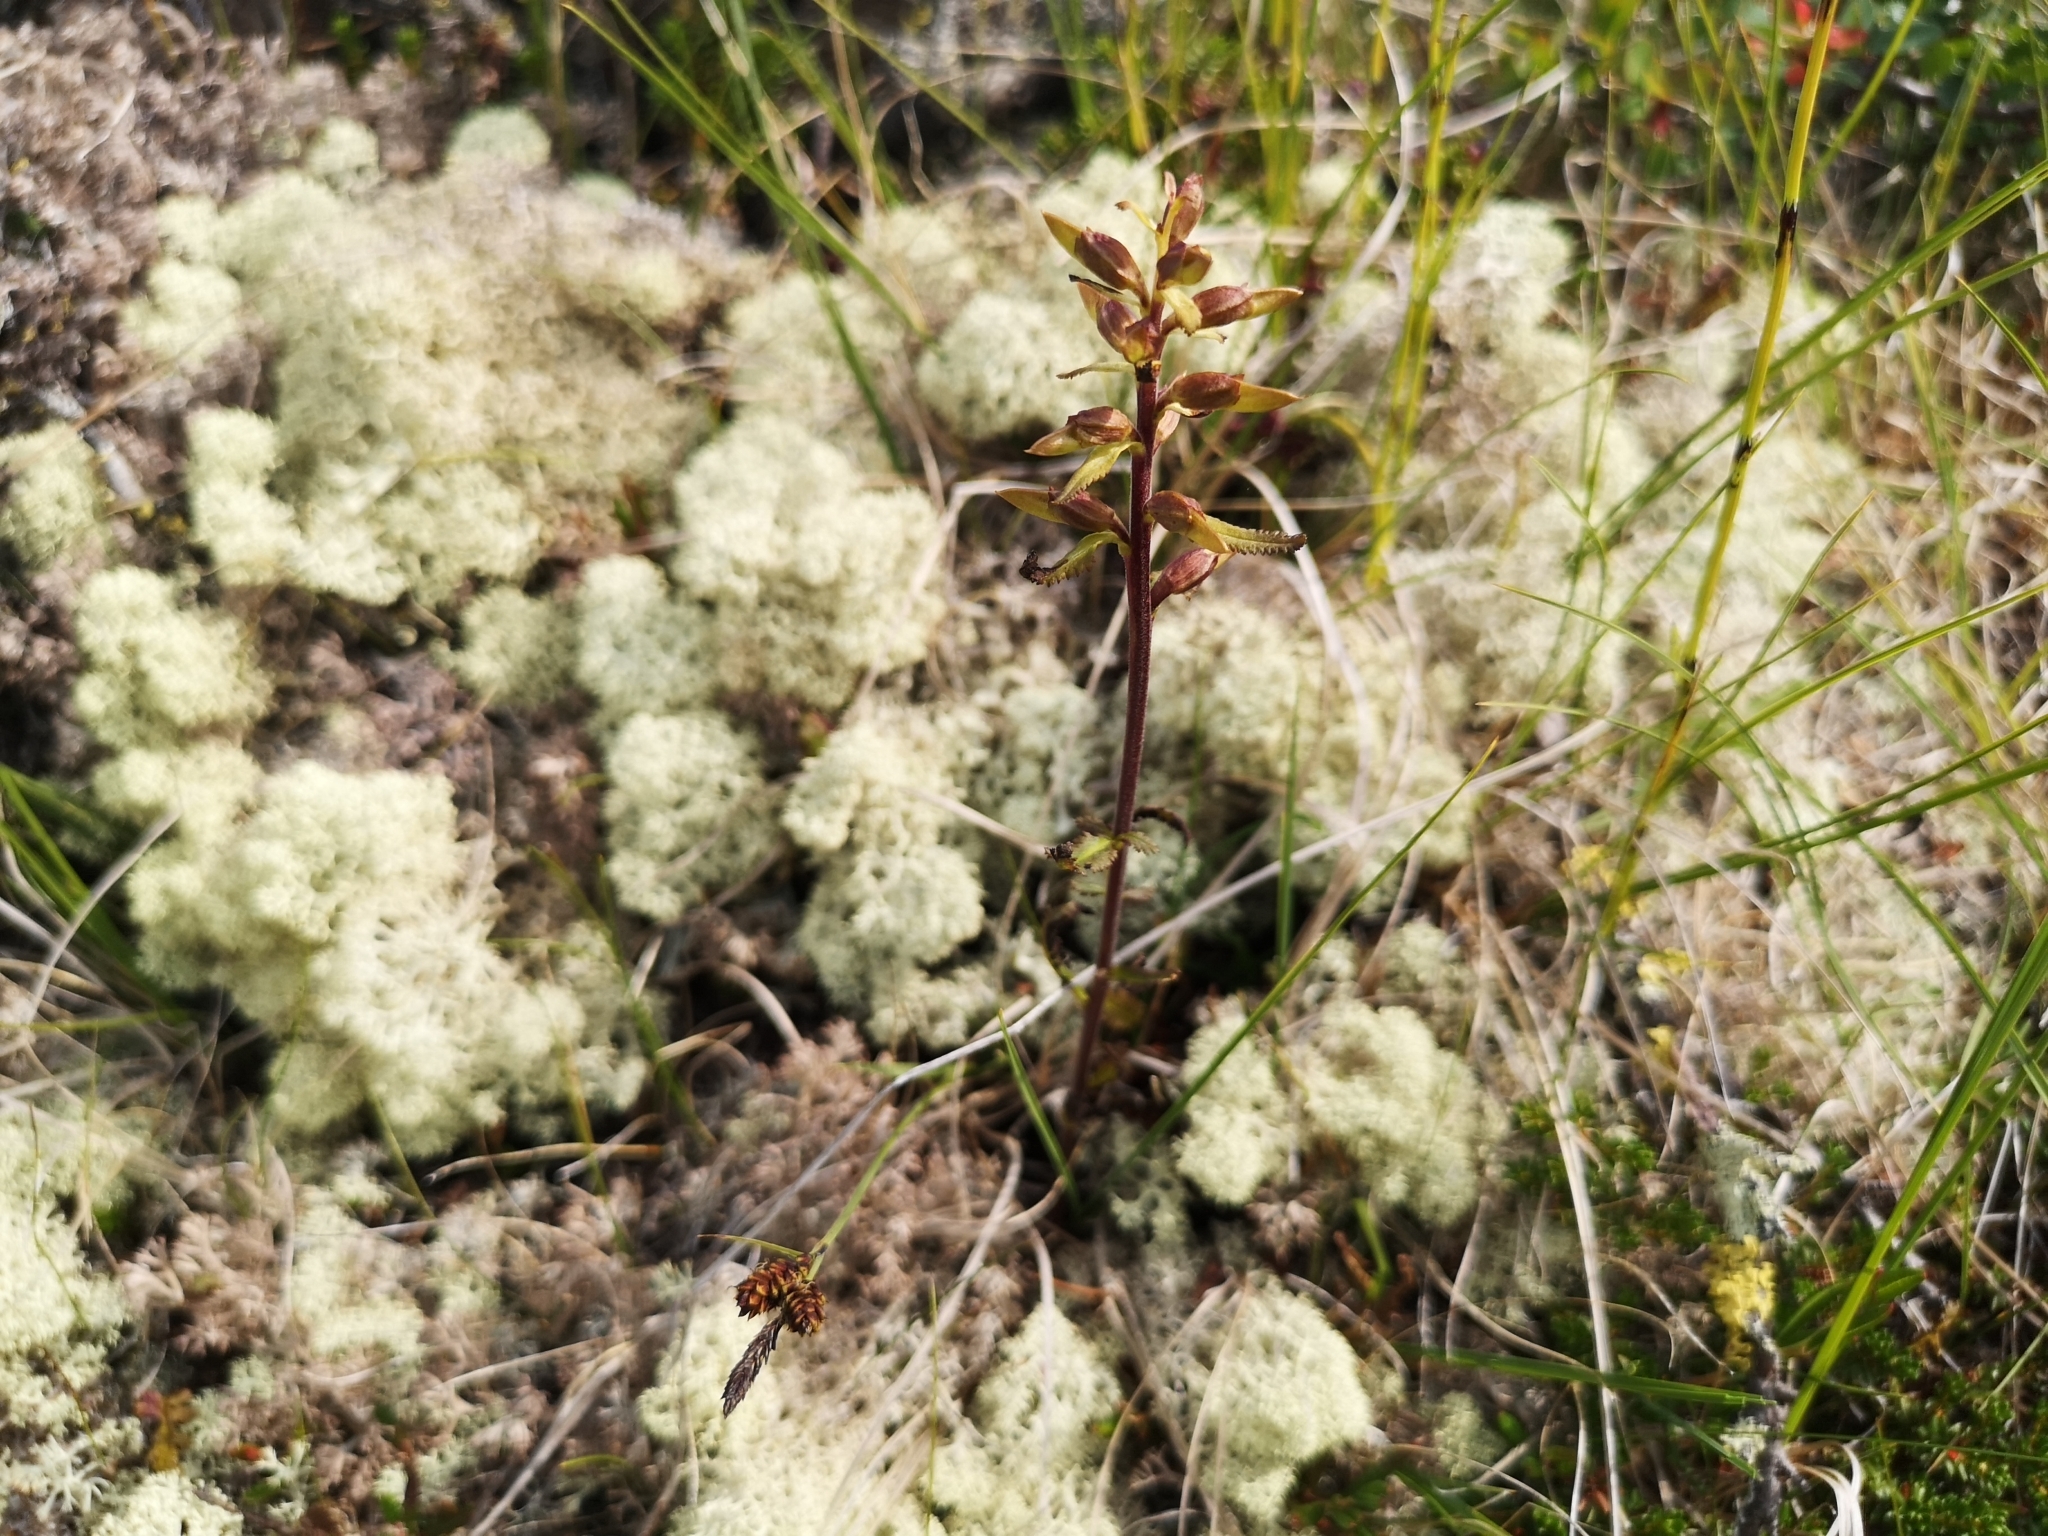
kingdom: Plantae
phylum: Tracheophyta
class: Magnoliopsida
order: Lamiales
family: Orobanchaceae
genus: Pedicularis
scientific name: Pedicularis lapponica
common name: Lapland lousewort
